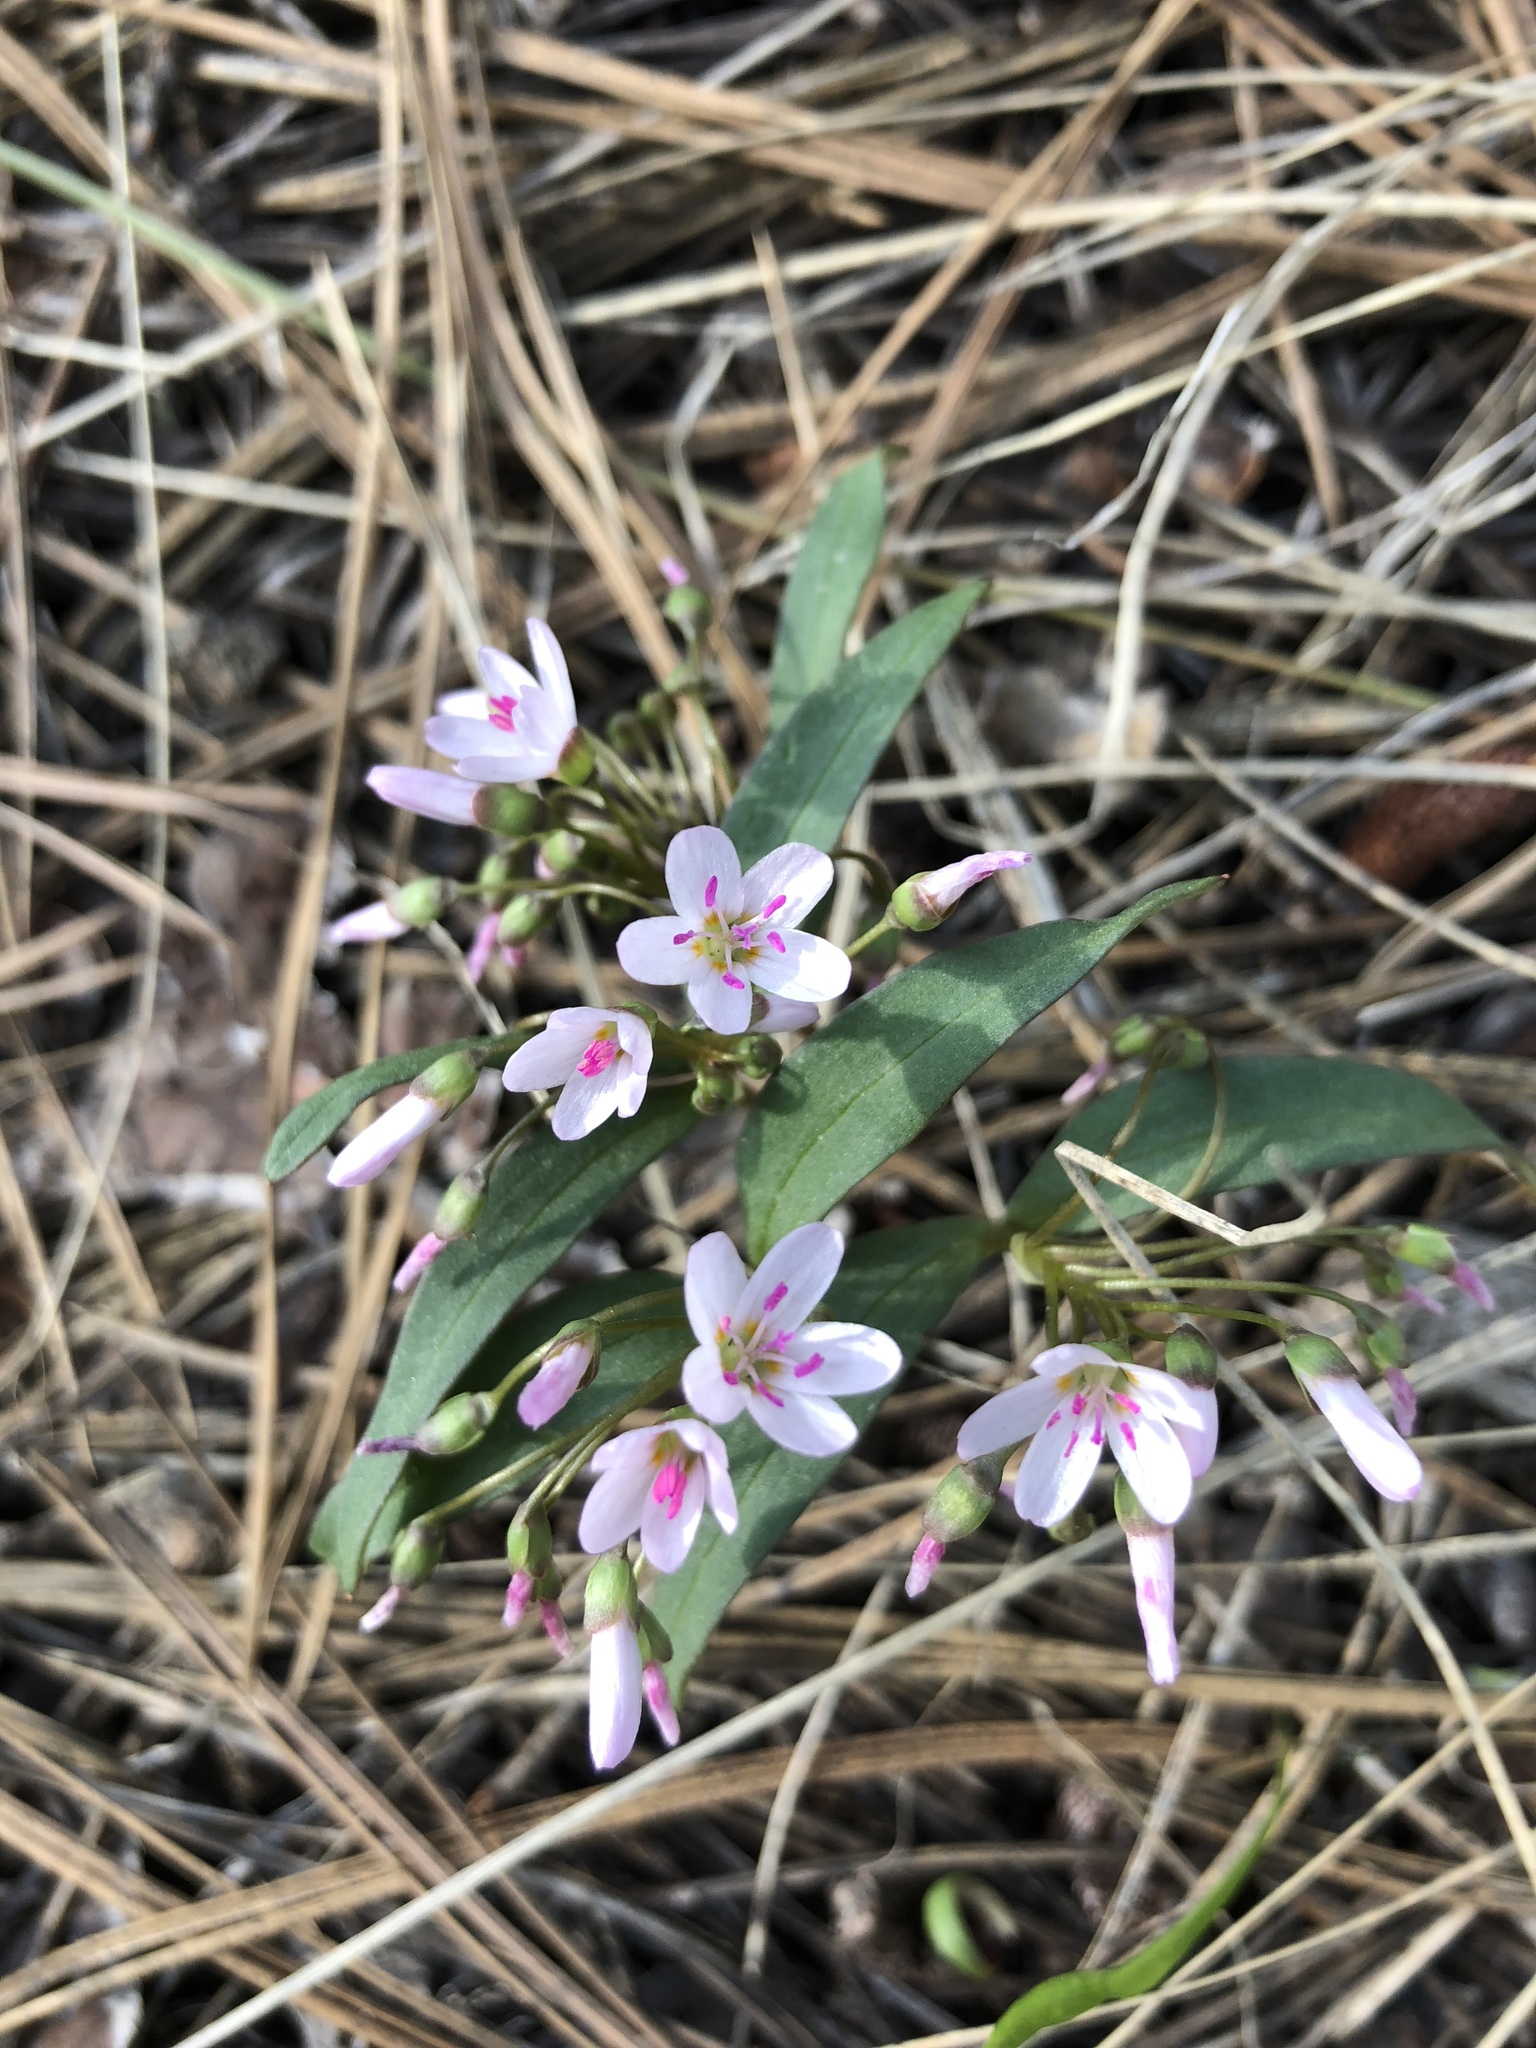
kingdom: Plantae
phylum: Tracheophyta
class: Magnoliopsida
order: Caryophyllales
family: Montiaceae
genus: Claytonia
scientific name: Claytonia lanceolata
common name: Western spring-beauty
